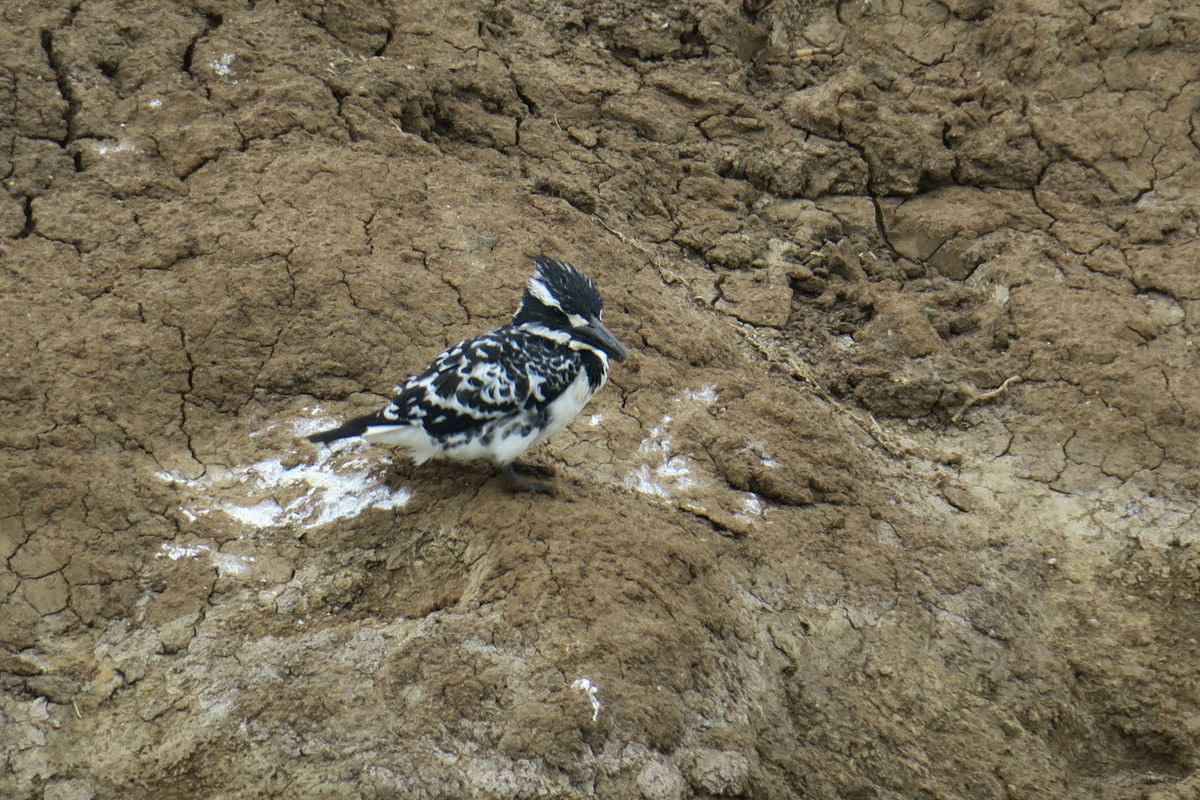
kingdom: Animalia
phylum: Chordata
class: Aves
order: Coraciiformes
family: Alcedinidae
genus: Ceryle
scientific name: Ceryle rudis
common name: Pied kingfisher
